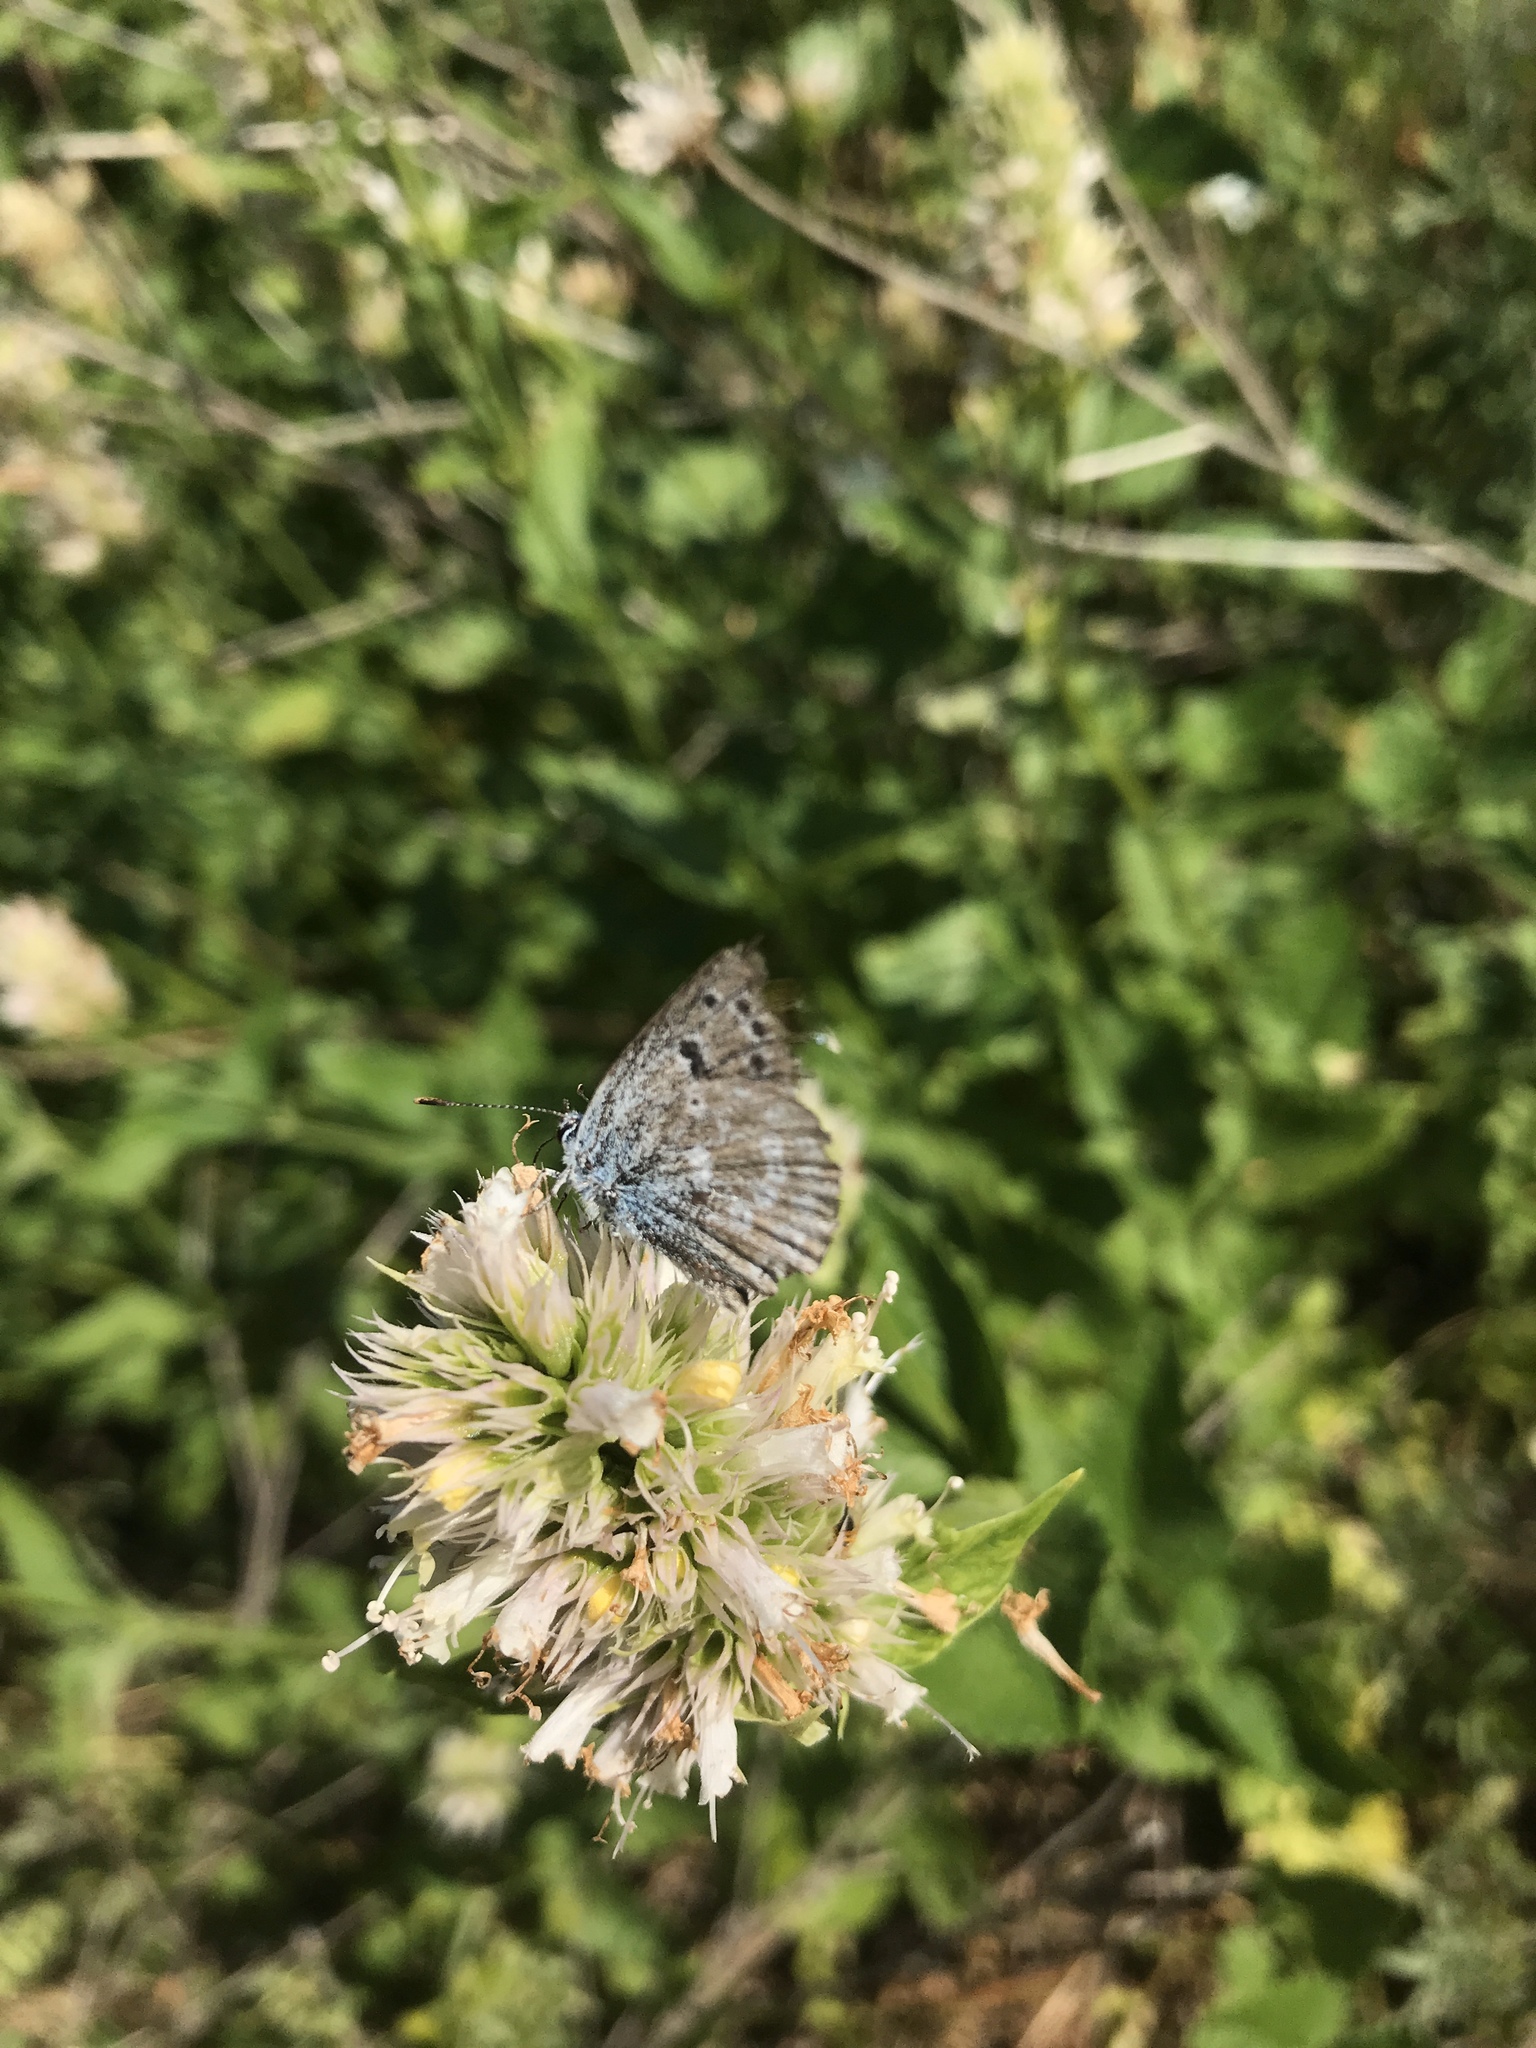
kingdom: Animalia
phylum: Arthropoda
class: Insecta
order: Lepidoptera
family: Lycaenidae
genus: Icaricia
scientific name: Icaricia icarioides
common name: Boisduval's blue
